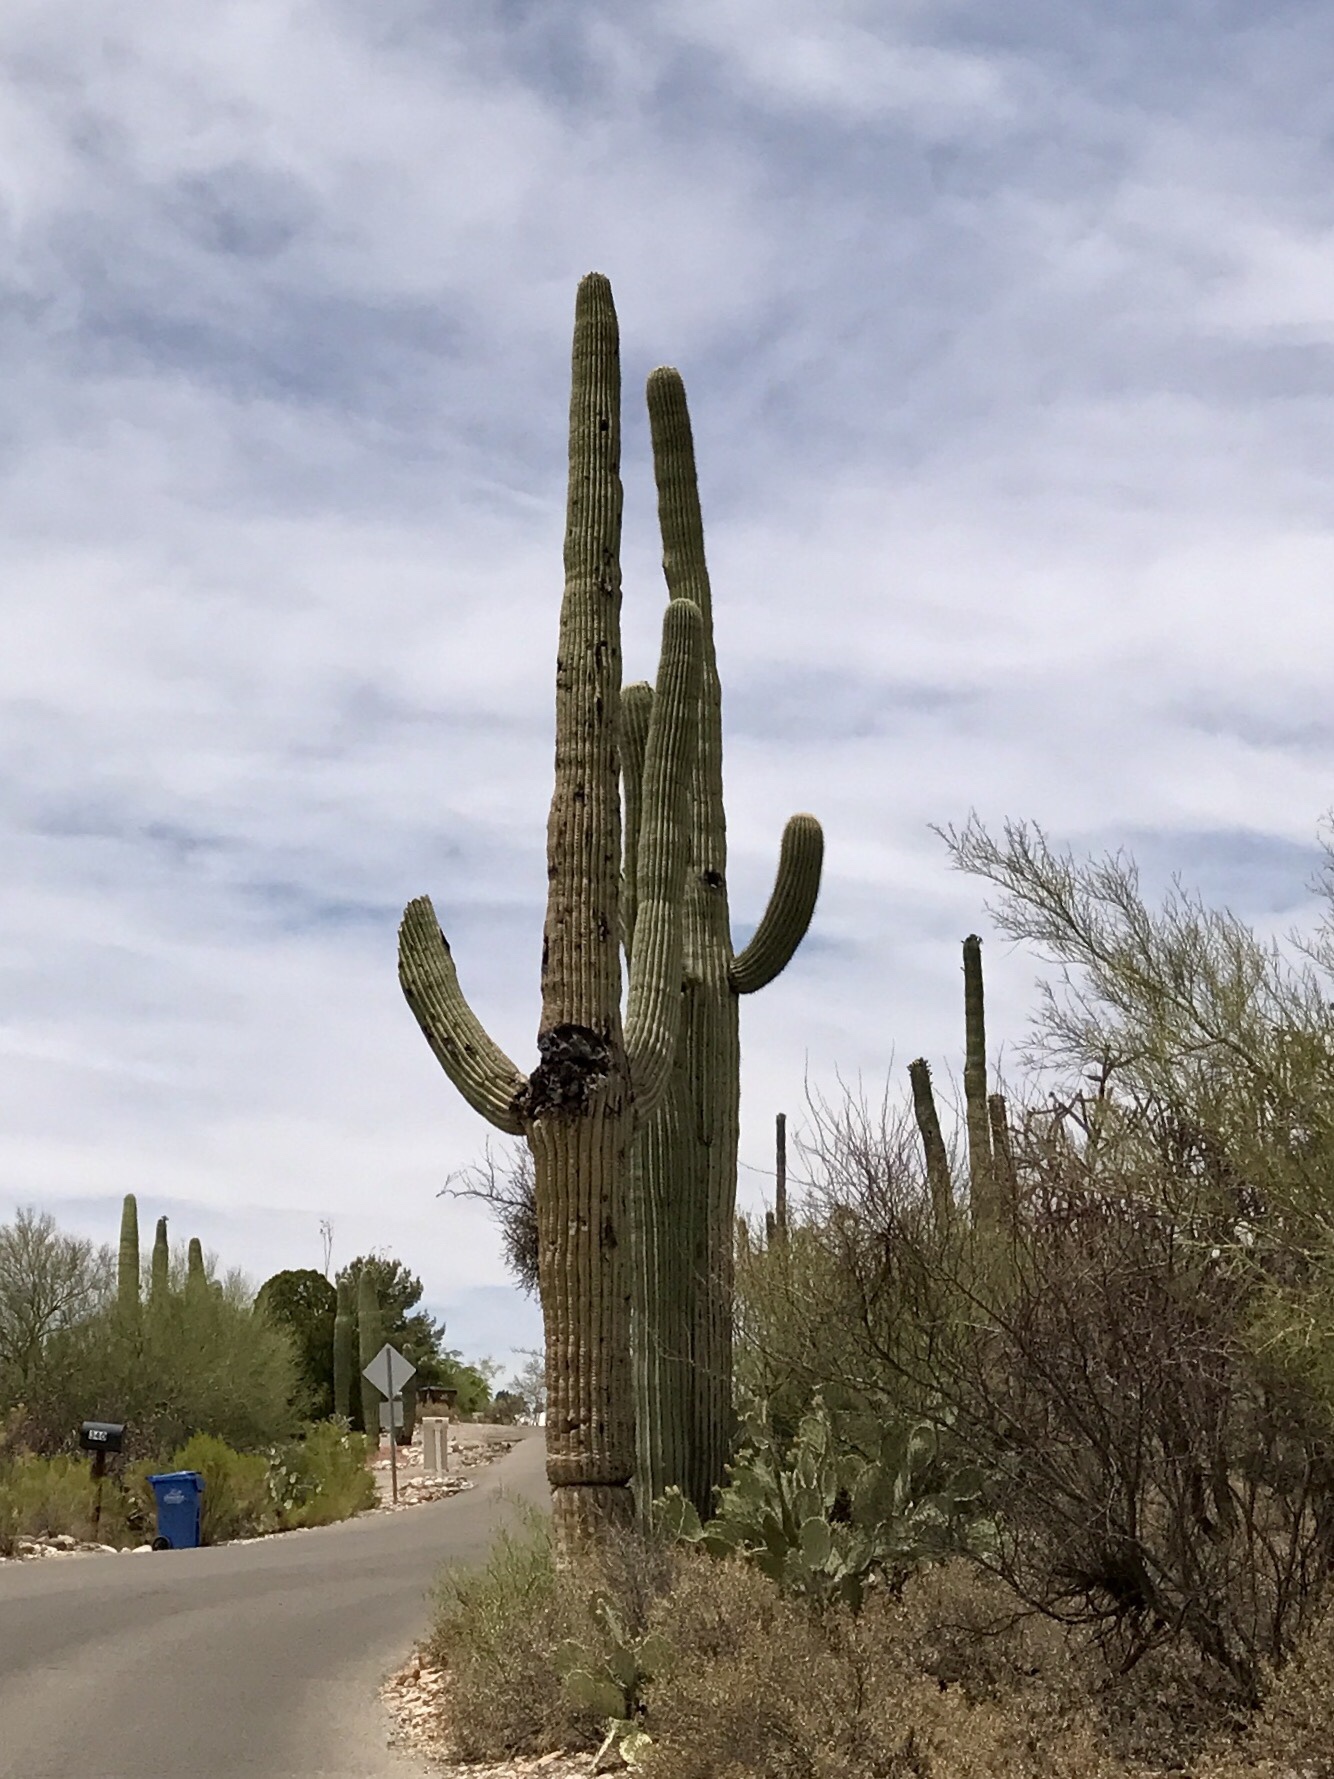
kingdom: Plantae
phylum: Tracheophyta
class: Magnoliopsida
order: Caryophyllales
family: Cactaceae
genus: Carnegiea
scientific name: Carnegiea gigantea
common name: Saguaro
